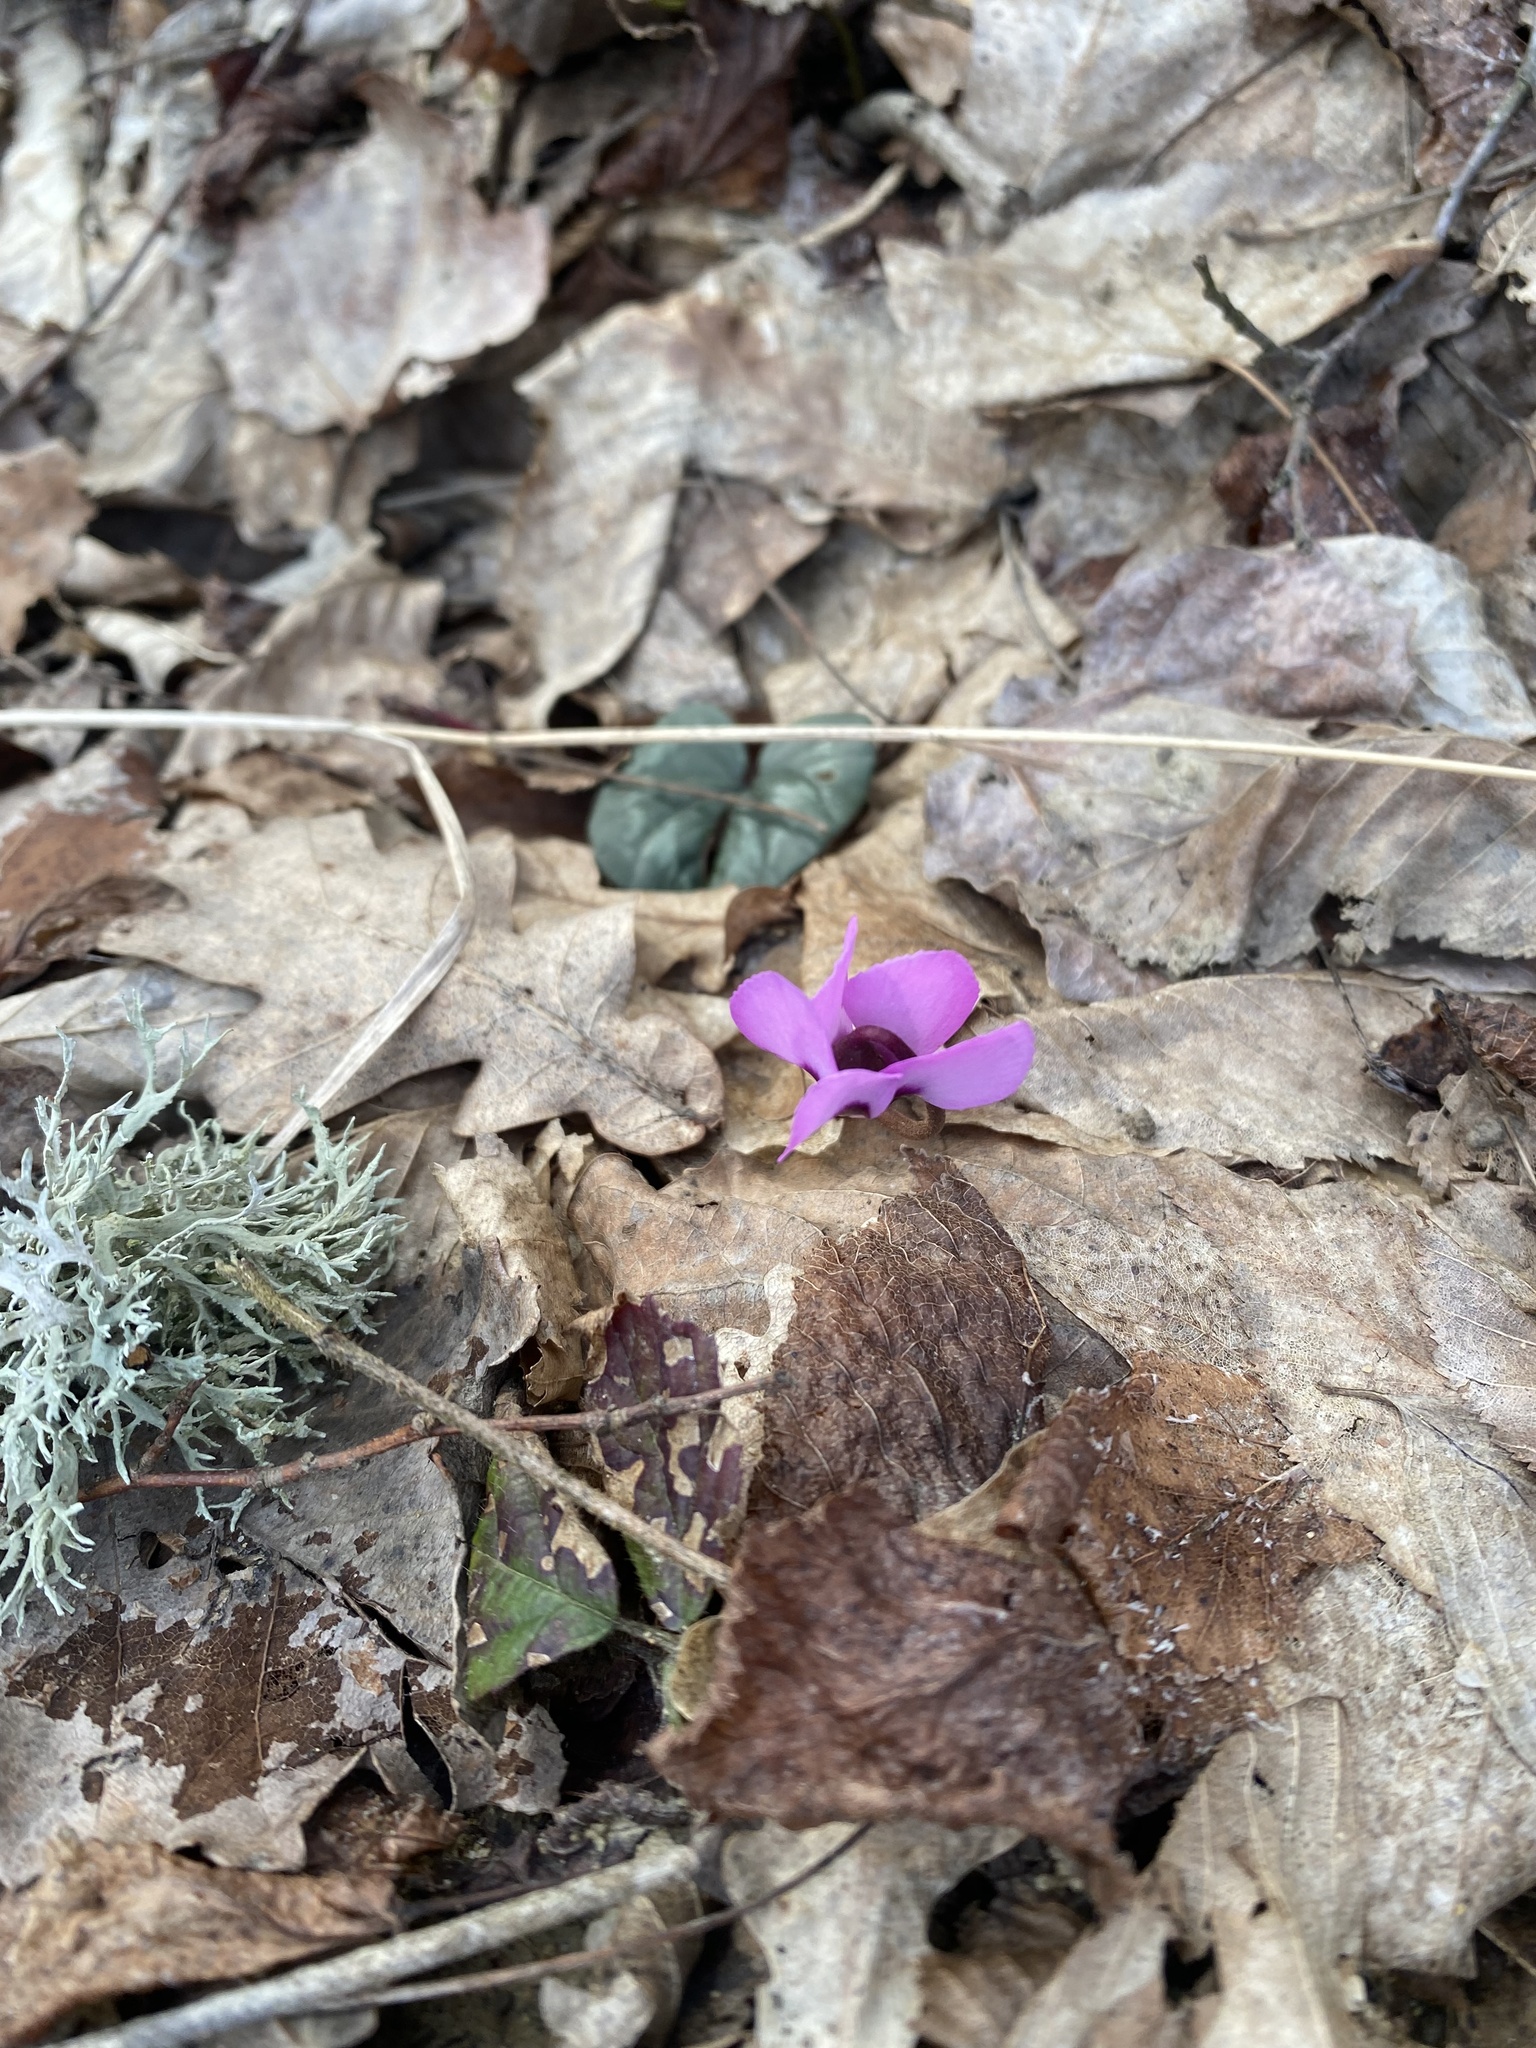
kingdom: Plantae
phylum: Tracheophyta
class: Magnoliopsida
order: Ericales
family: Primulaceae
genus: Cyclamen
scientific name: Cyclamen coum
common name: Eastern sowbread
